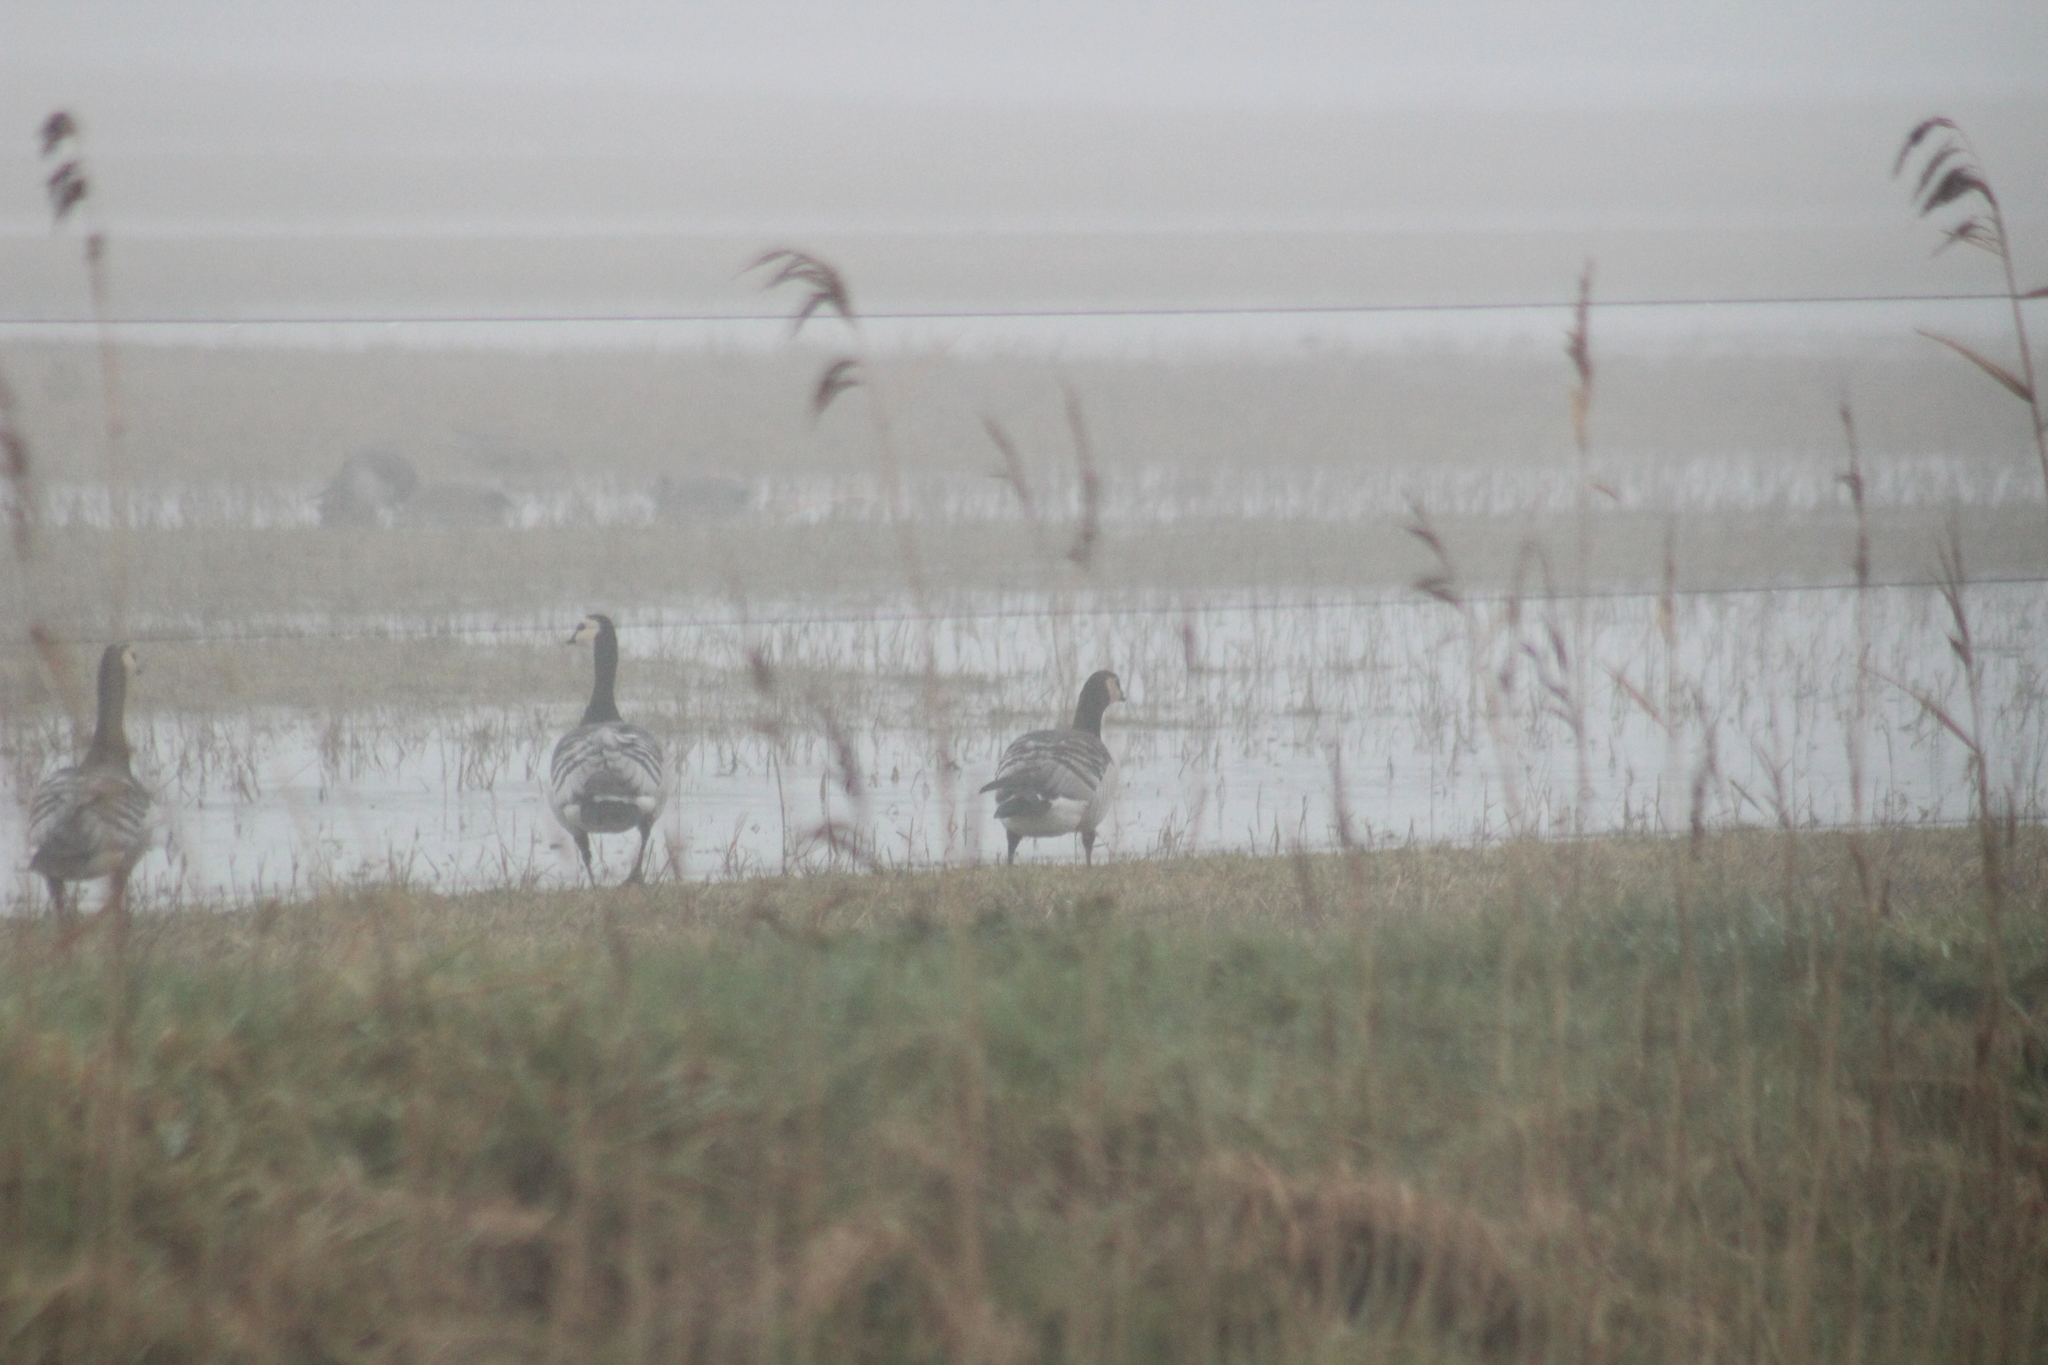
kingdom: Animalia
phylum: Chordata
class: Aves
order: Anseriformes
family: Anatidae
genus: Branta
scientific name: Branta leucopsis
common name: Barnacle goose
